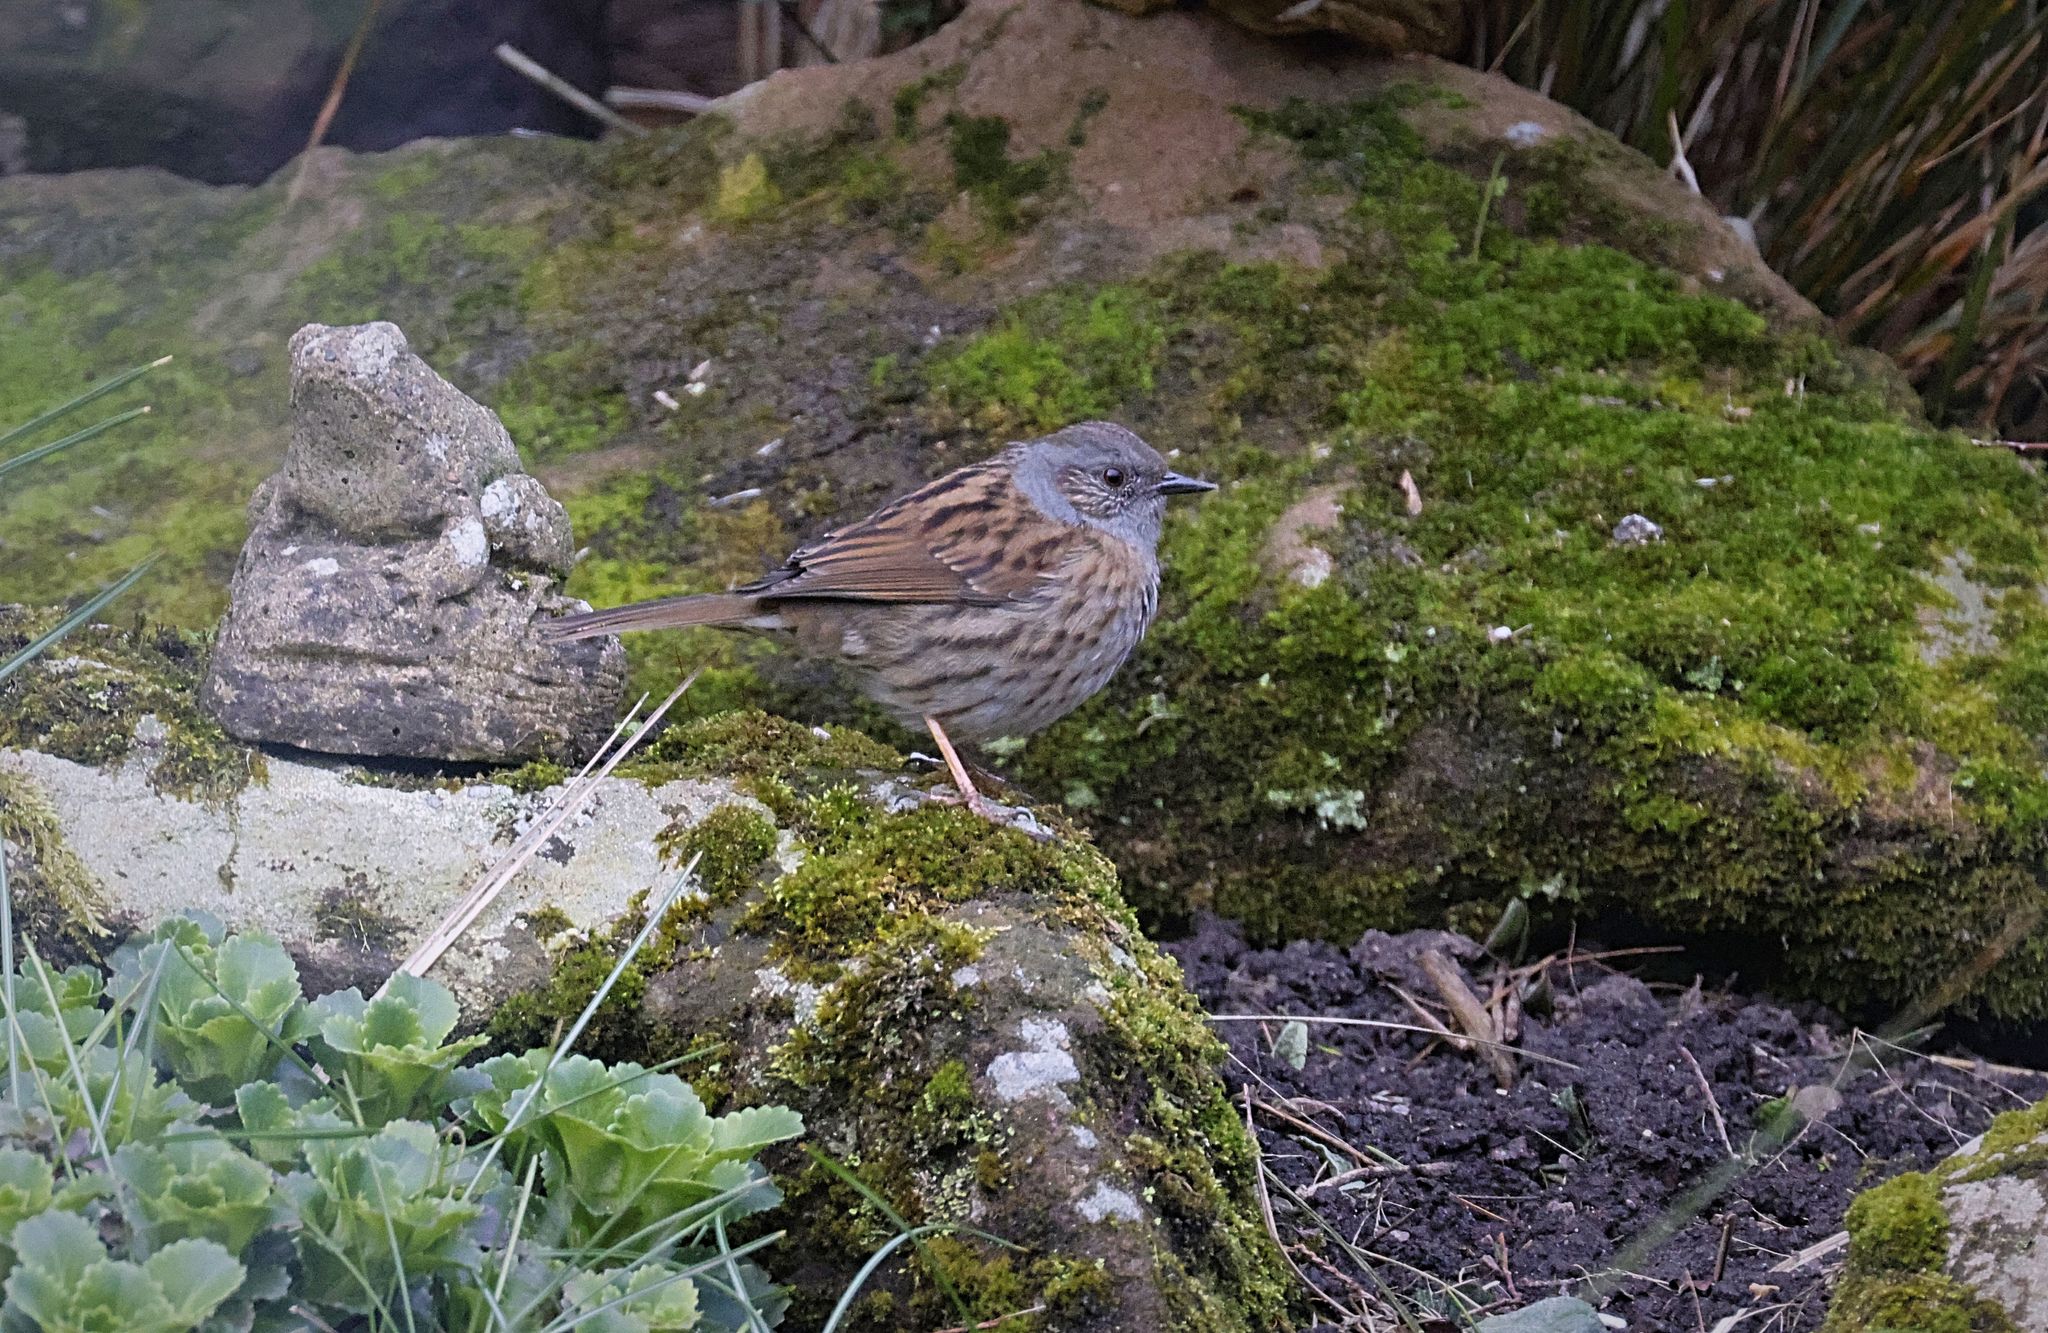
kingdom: Animalia
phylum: Chordata
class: Aves
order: Passeriformes
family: Prunellidae
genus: Prunella
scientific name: Prunella modularis
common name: Dunnock
